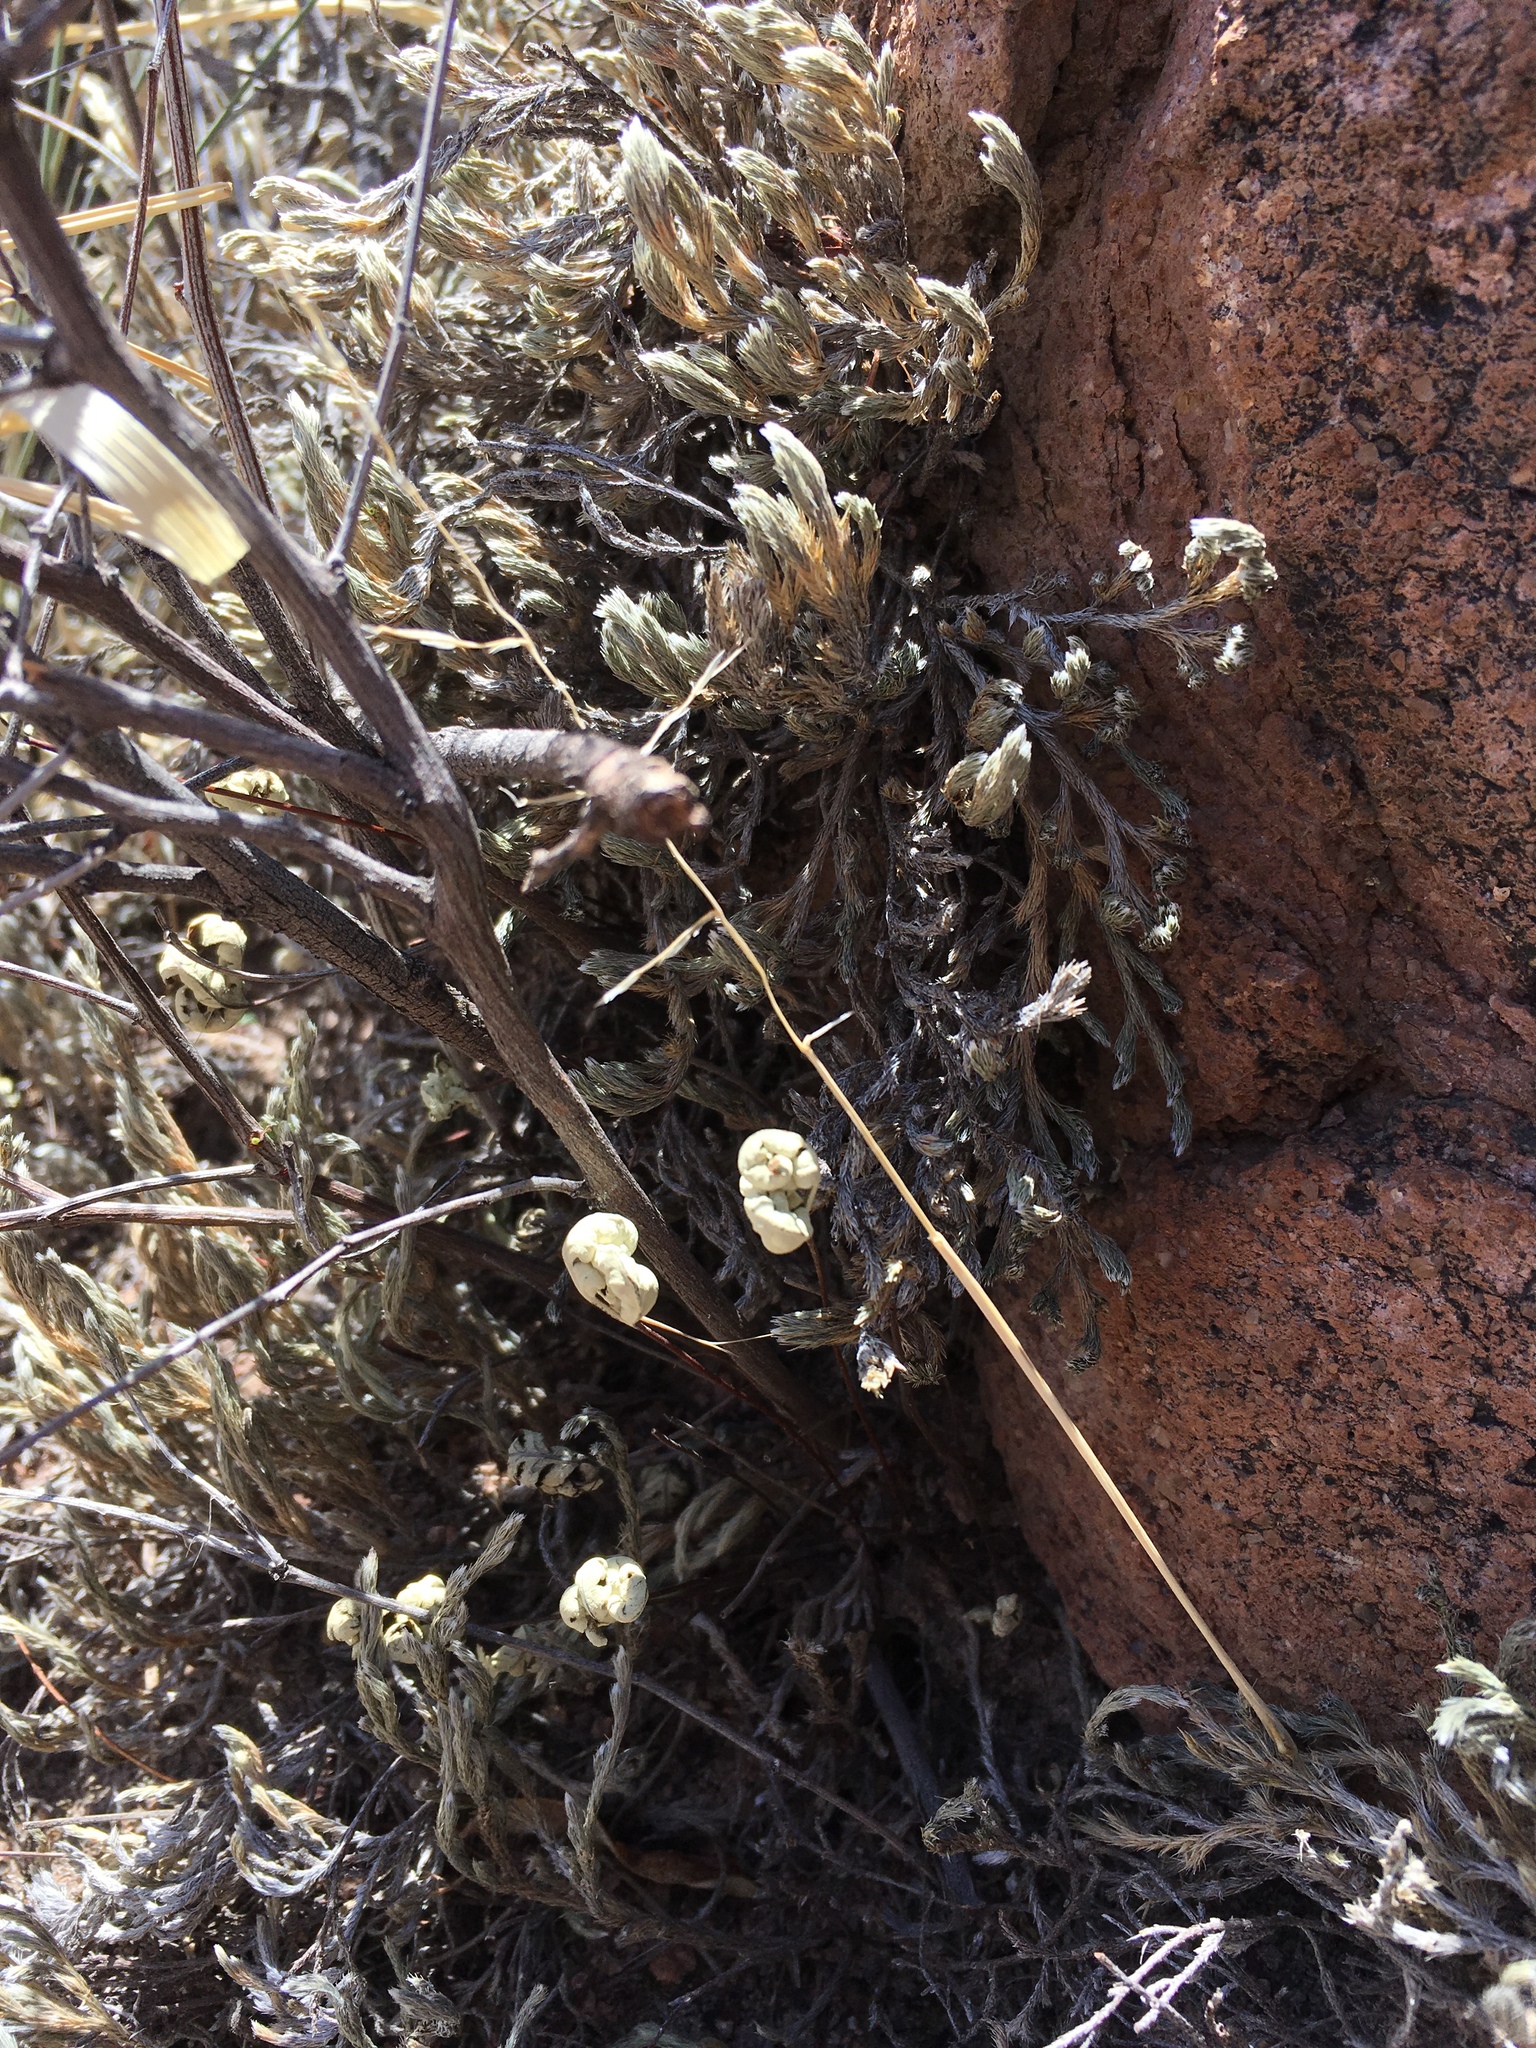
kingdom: Plantae
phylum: Tracheophyta
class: Polypodiopsida
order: Polypodiales
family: Pteridaceae
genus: Notholaena
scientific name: Notholaena standleyi
